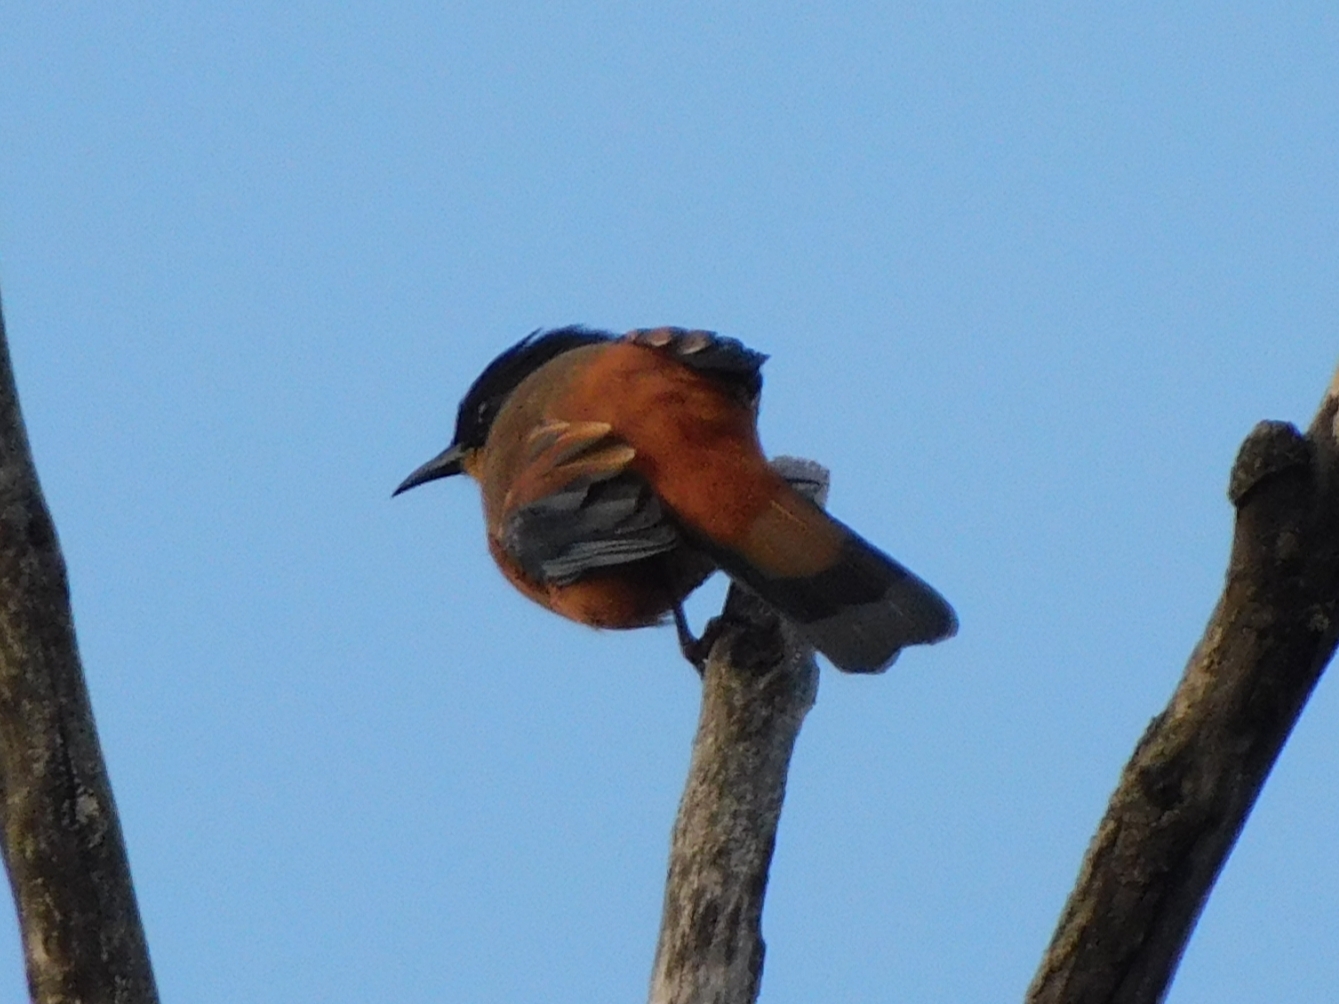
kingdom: Animalia
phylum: Chordata
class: Aves
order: Passeriformes
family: Leiothrichidae
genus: Heterophasia
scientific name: Heterophasia capistrata
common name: Rufous sibia
